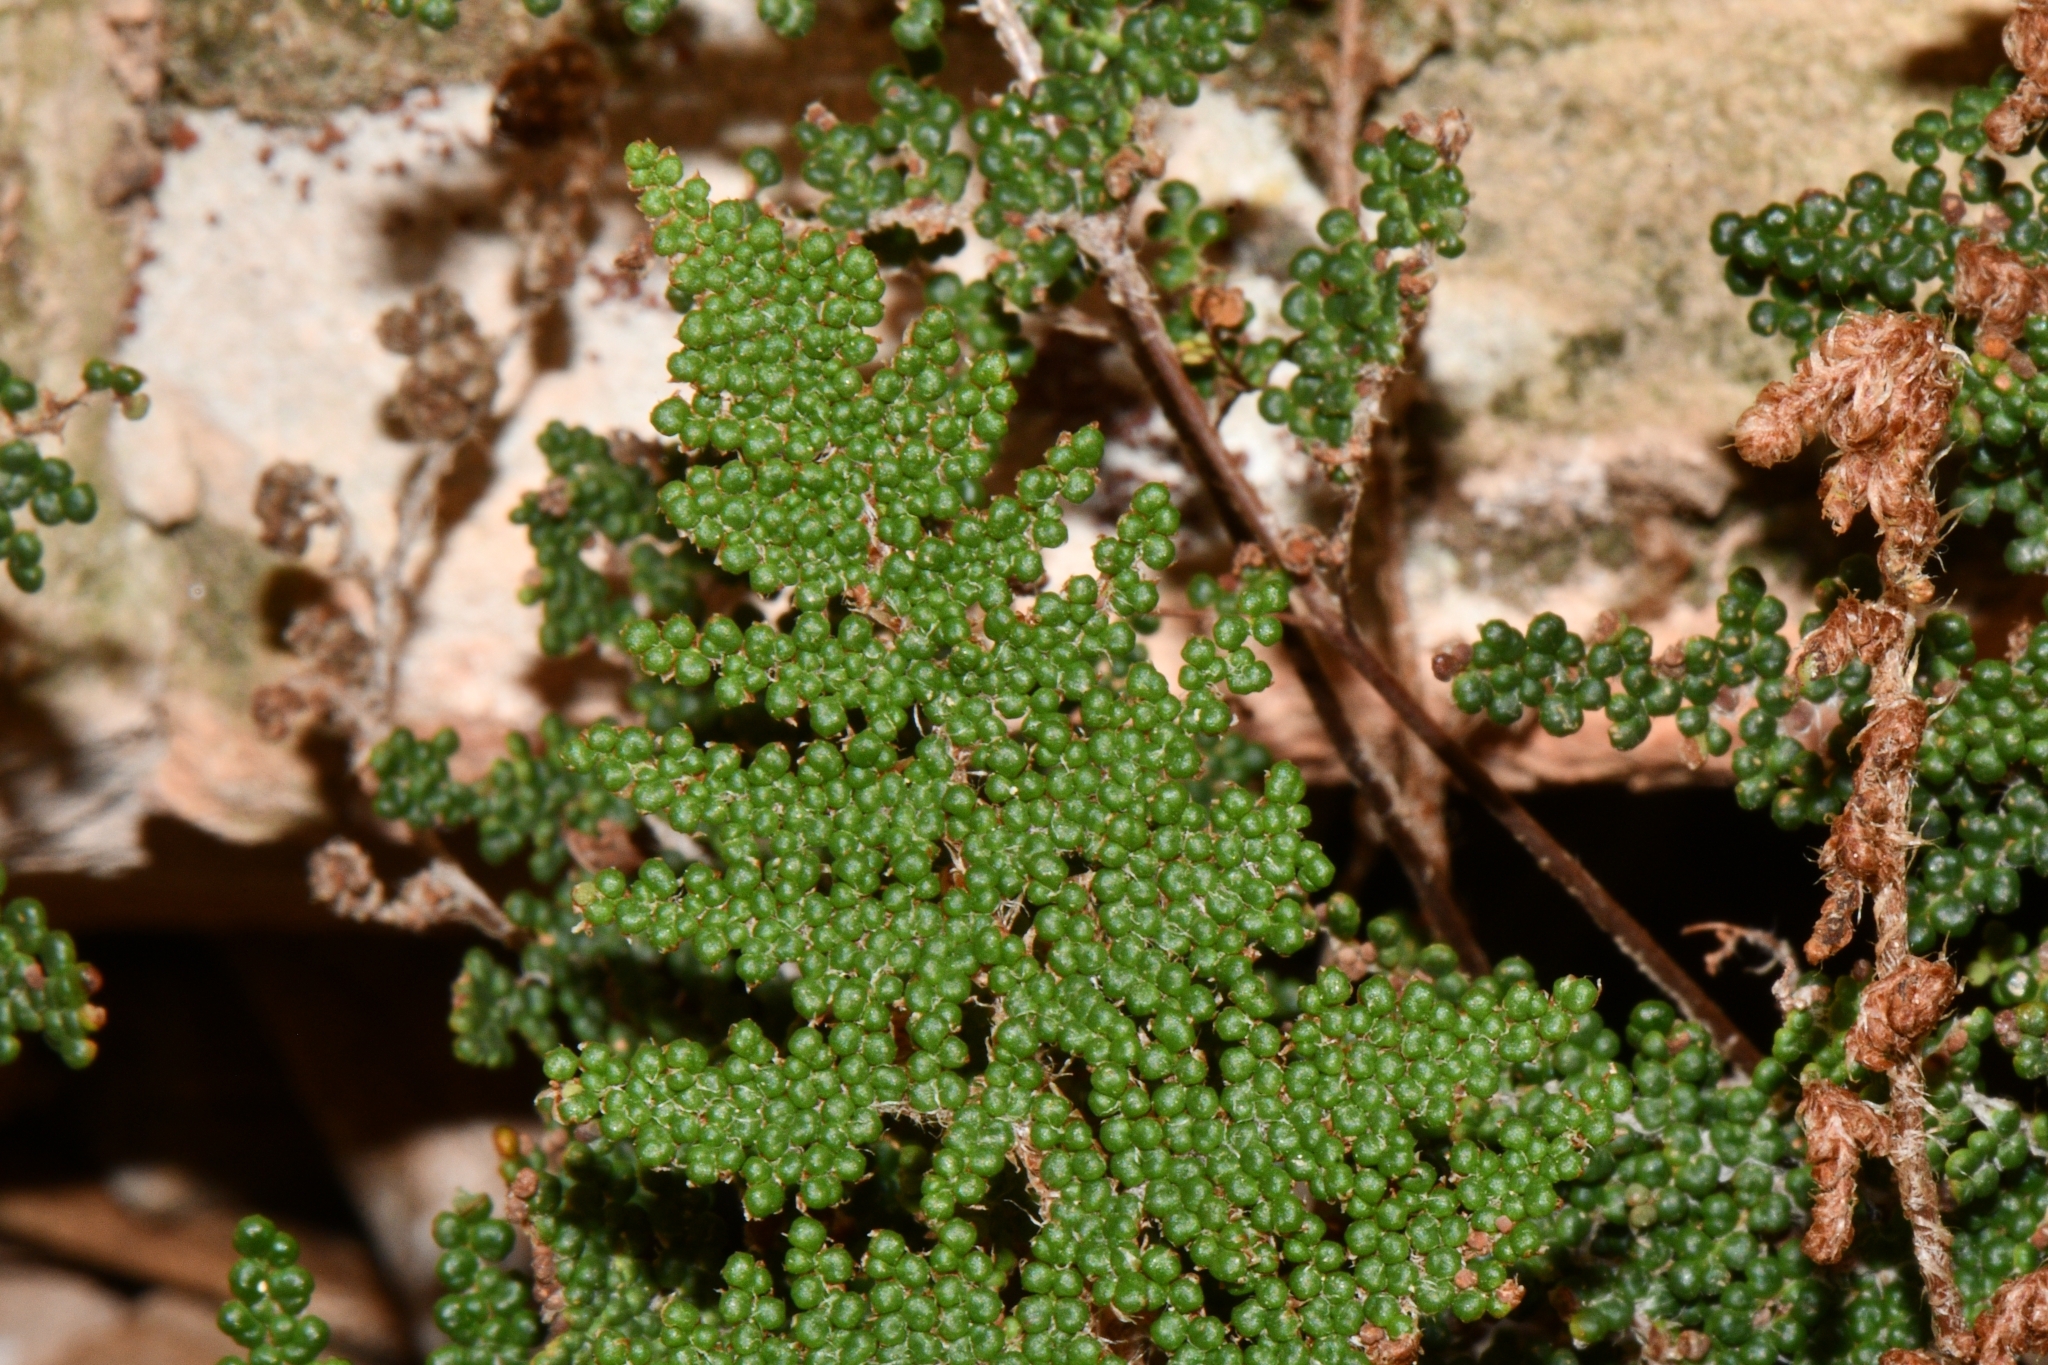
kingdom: Plantae
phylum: Tracheophyta
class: Polypodiopsida
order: Polypodiales
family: Pteridaceae
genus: Myriopteris
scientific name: Myriopteris covillei
